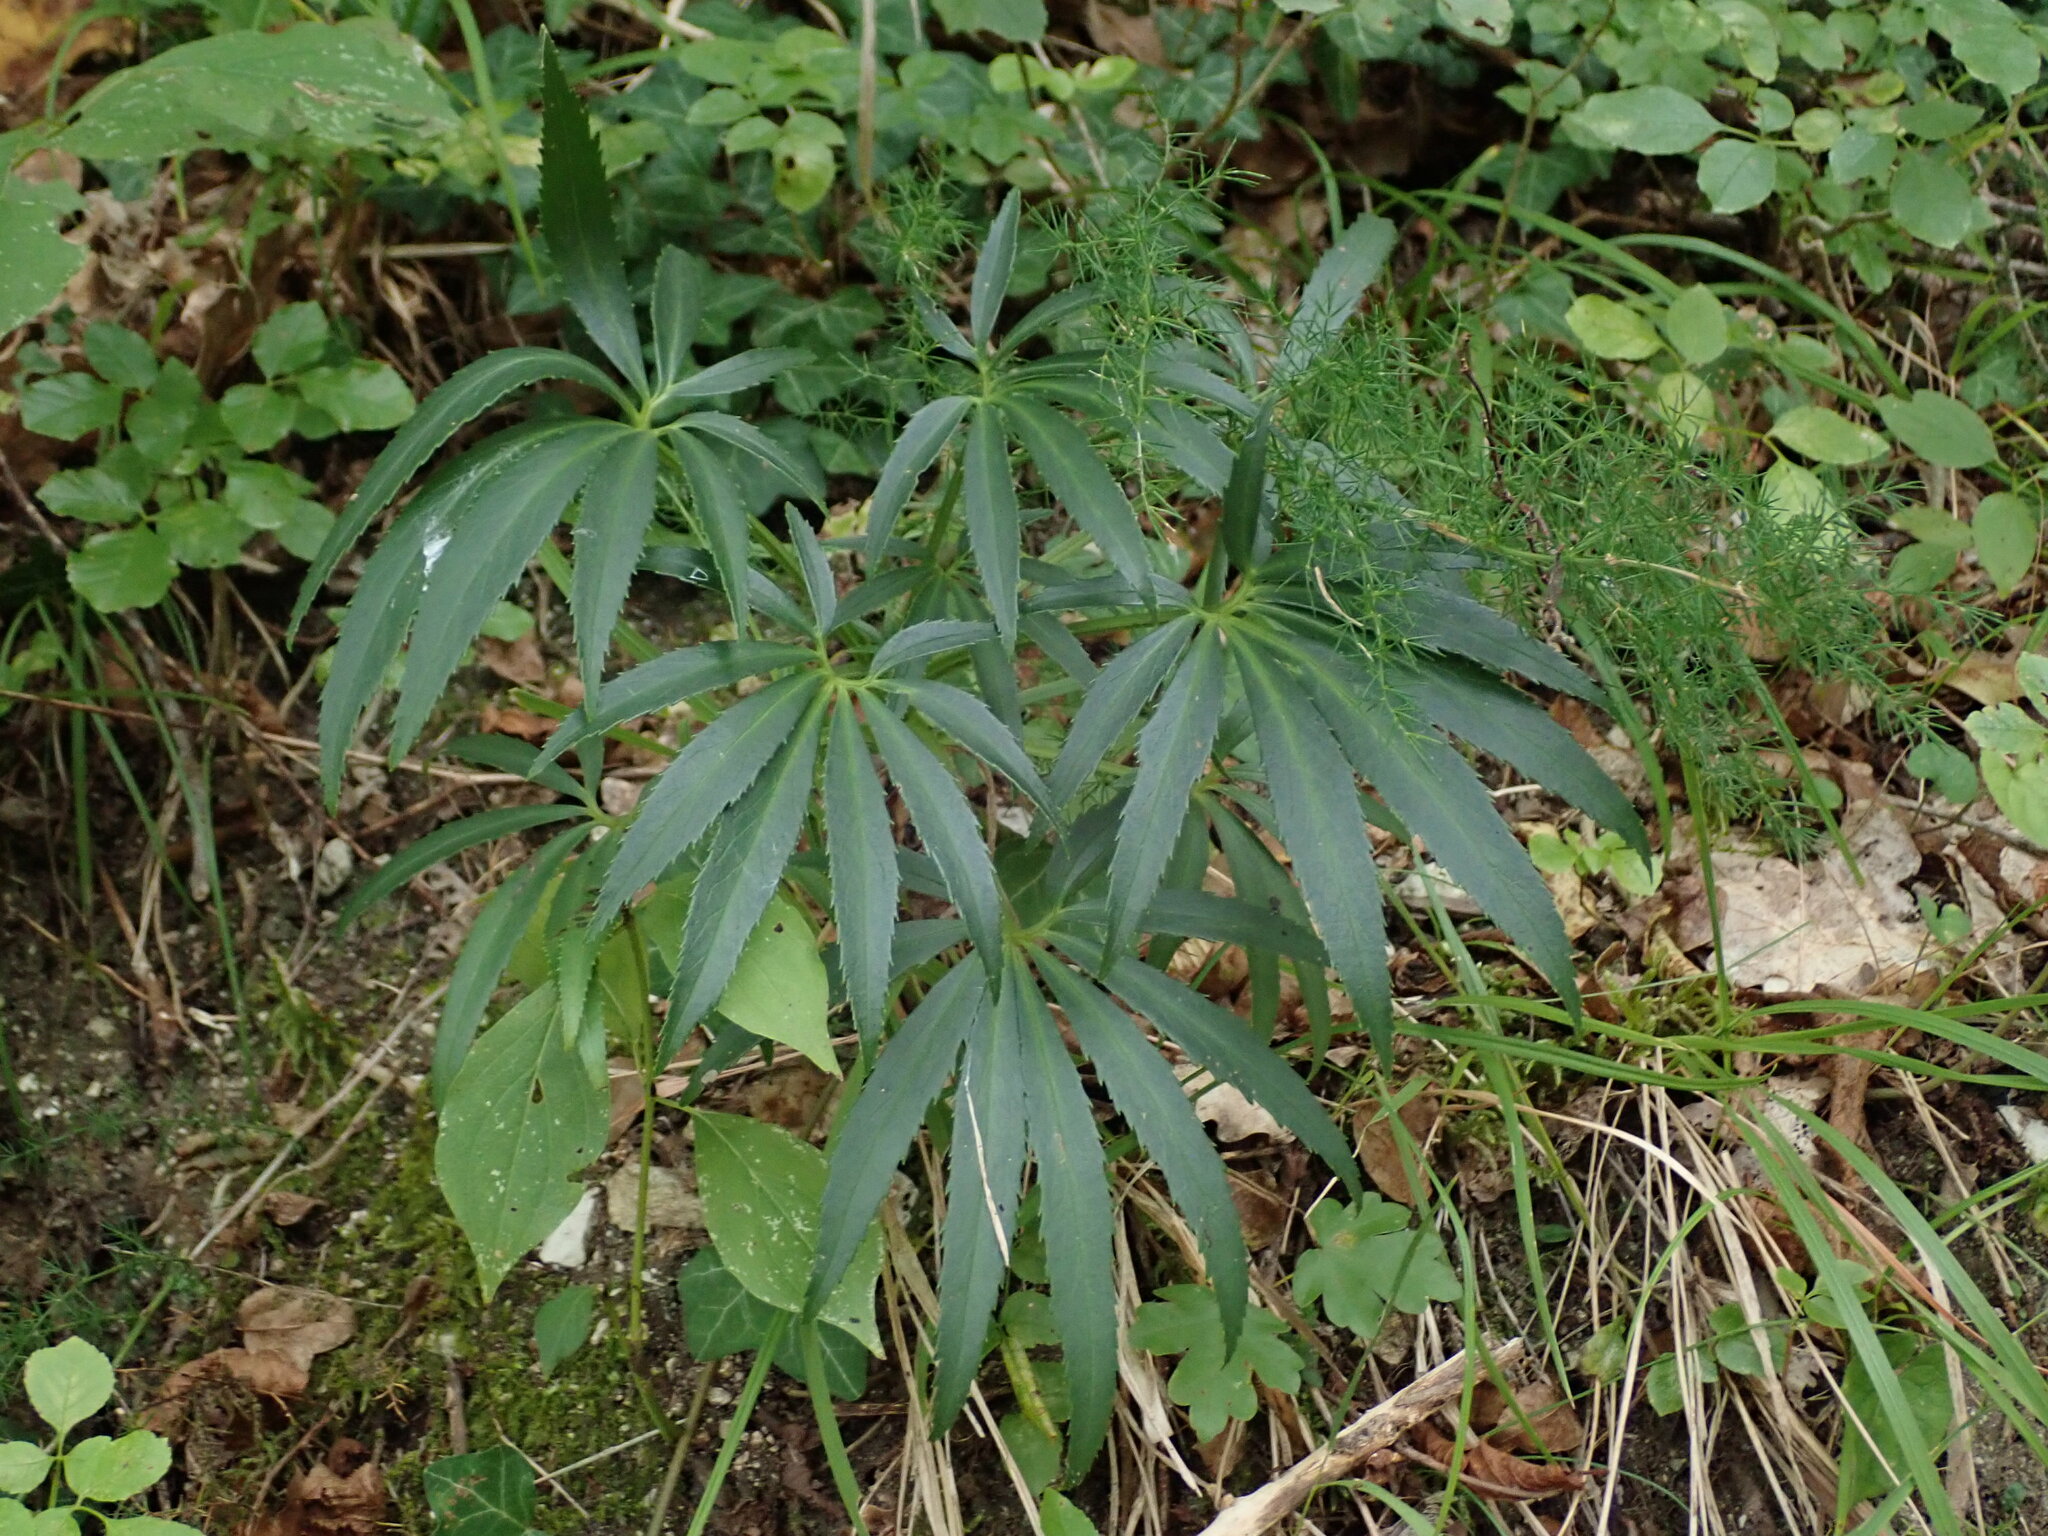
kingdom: Plantae
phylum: Tracheophyta
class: Magnoliopsida
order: Ranunculales
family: Ranunculaceae
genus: Helleborus
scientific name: Helleborus foetidus
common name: Stinking hellebore
